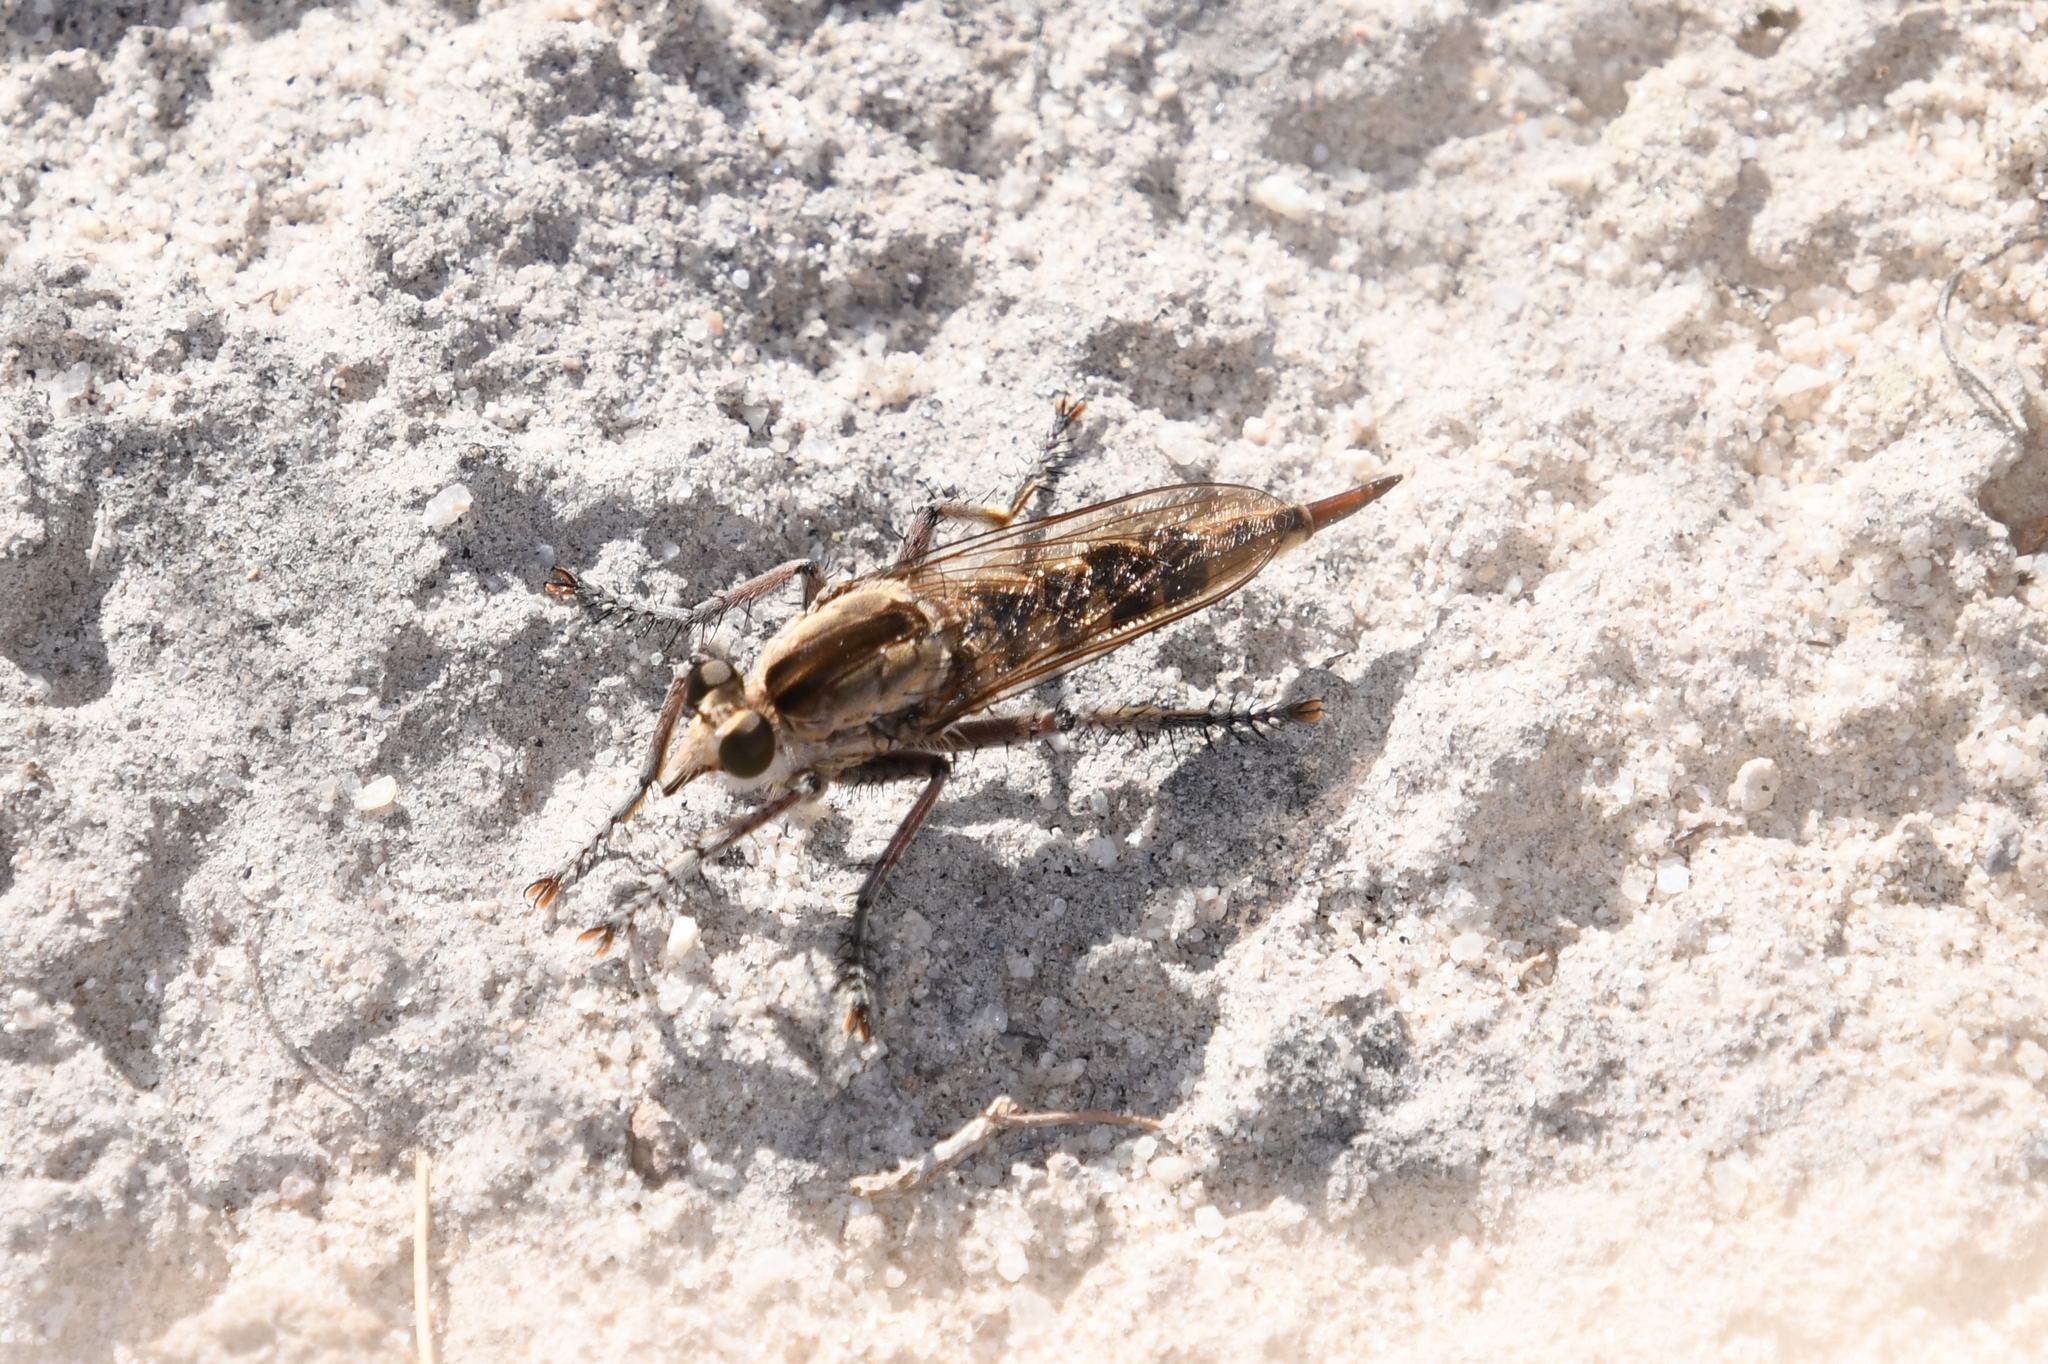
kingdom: Animalia
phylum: Arthropoda
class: Insecta
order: Diptera
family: Asilidae
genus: Triorla
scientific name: Triorla interrupta
